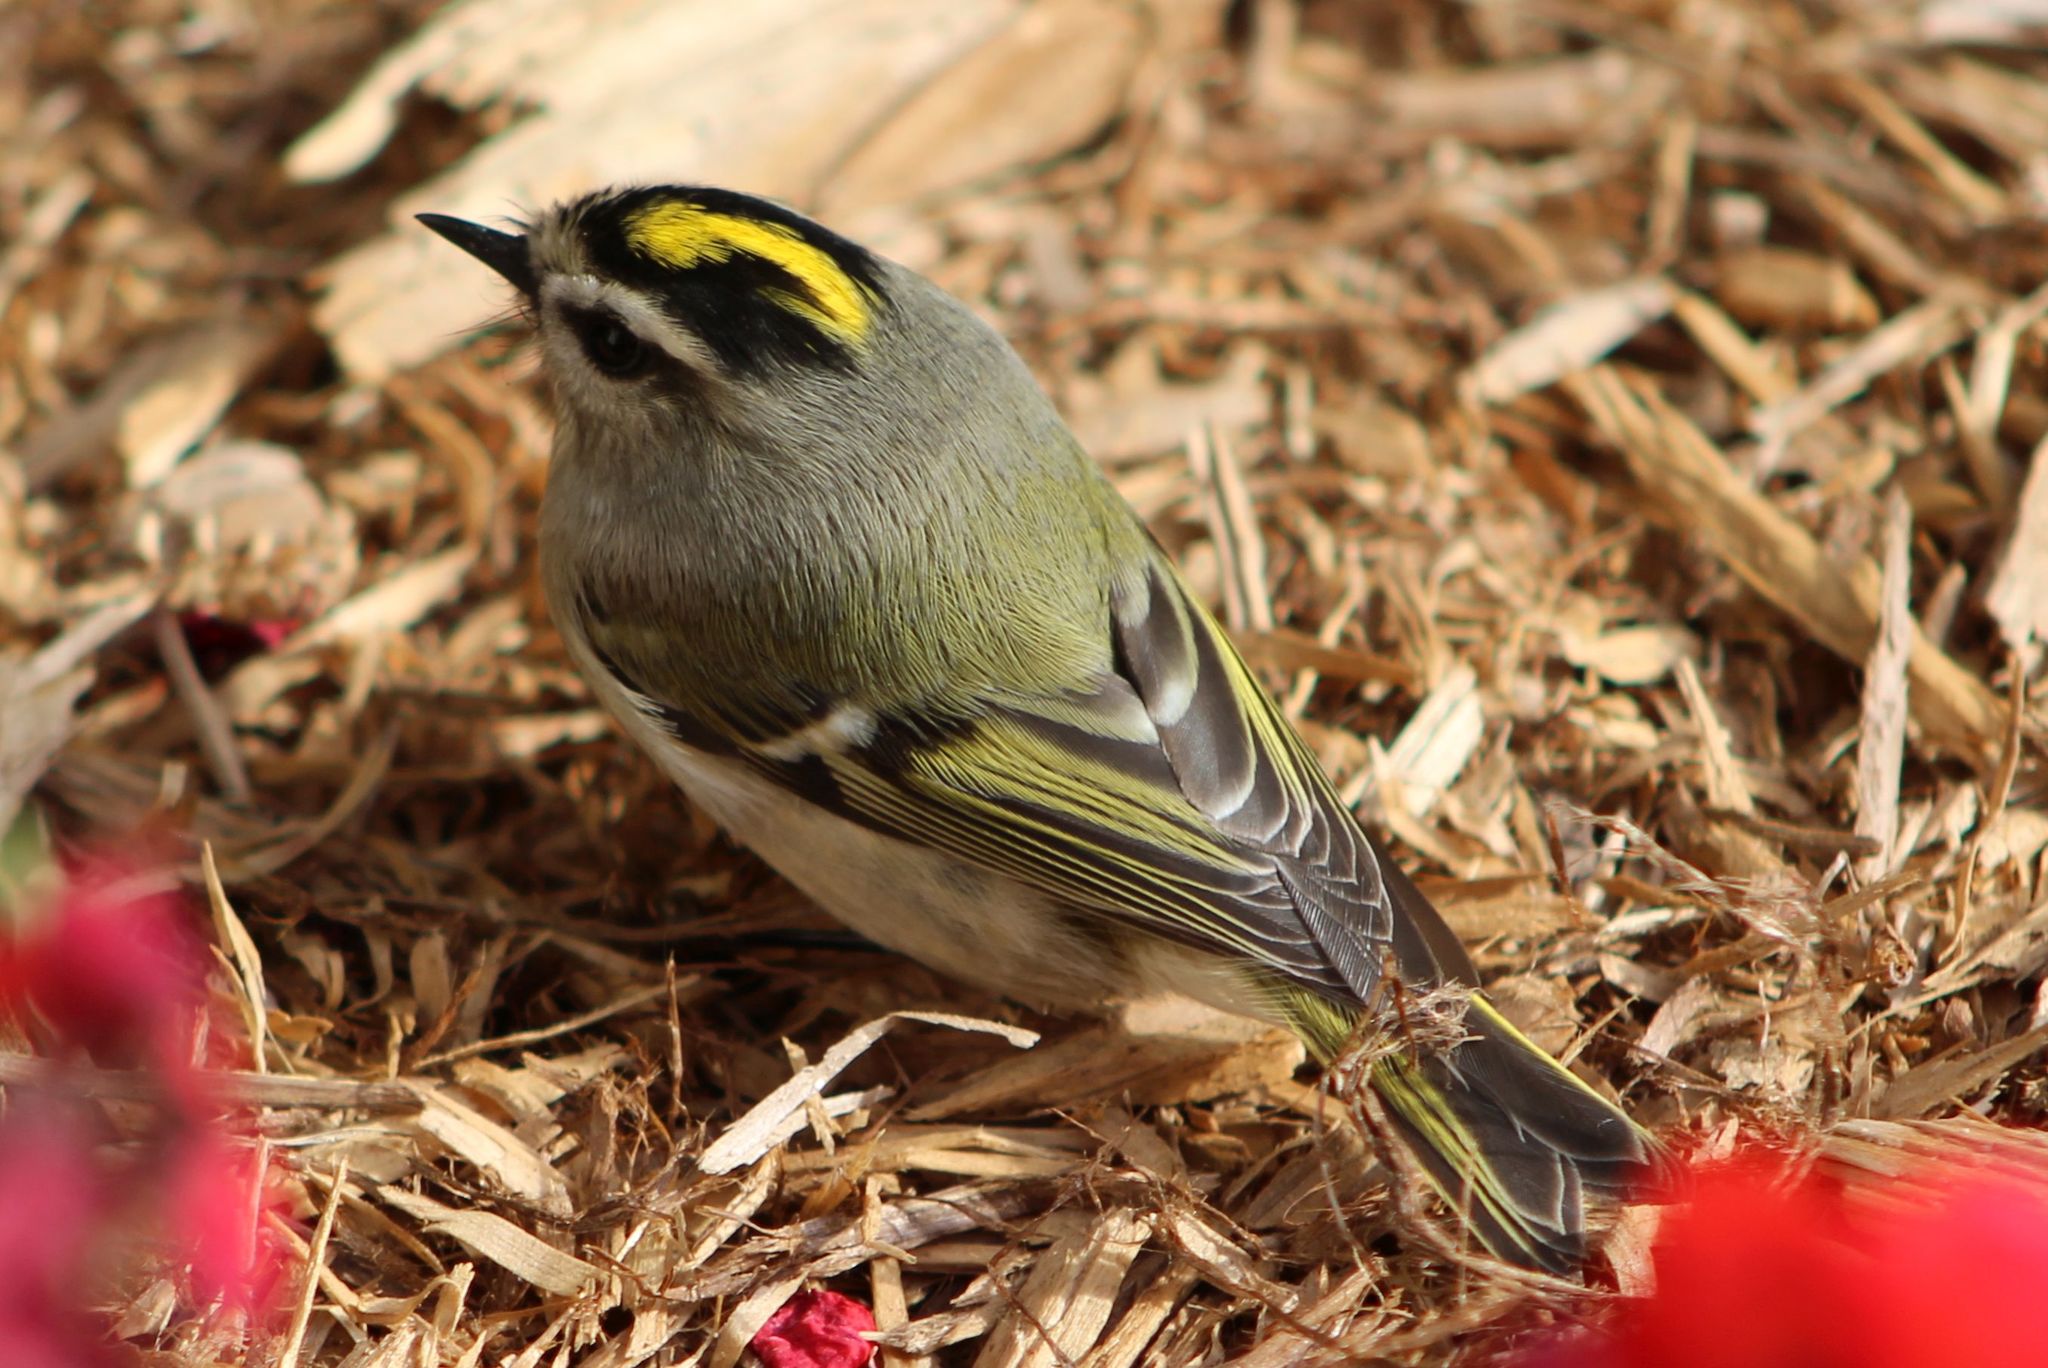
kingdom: Animalia
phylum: Chordata
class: Aves
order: Passeriformes
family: Regulidae
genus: Regulus
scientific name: Regulus satrapa
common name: Golden-crowned kinglet
